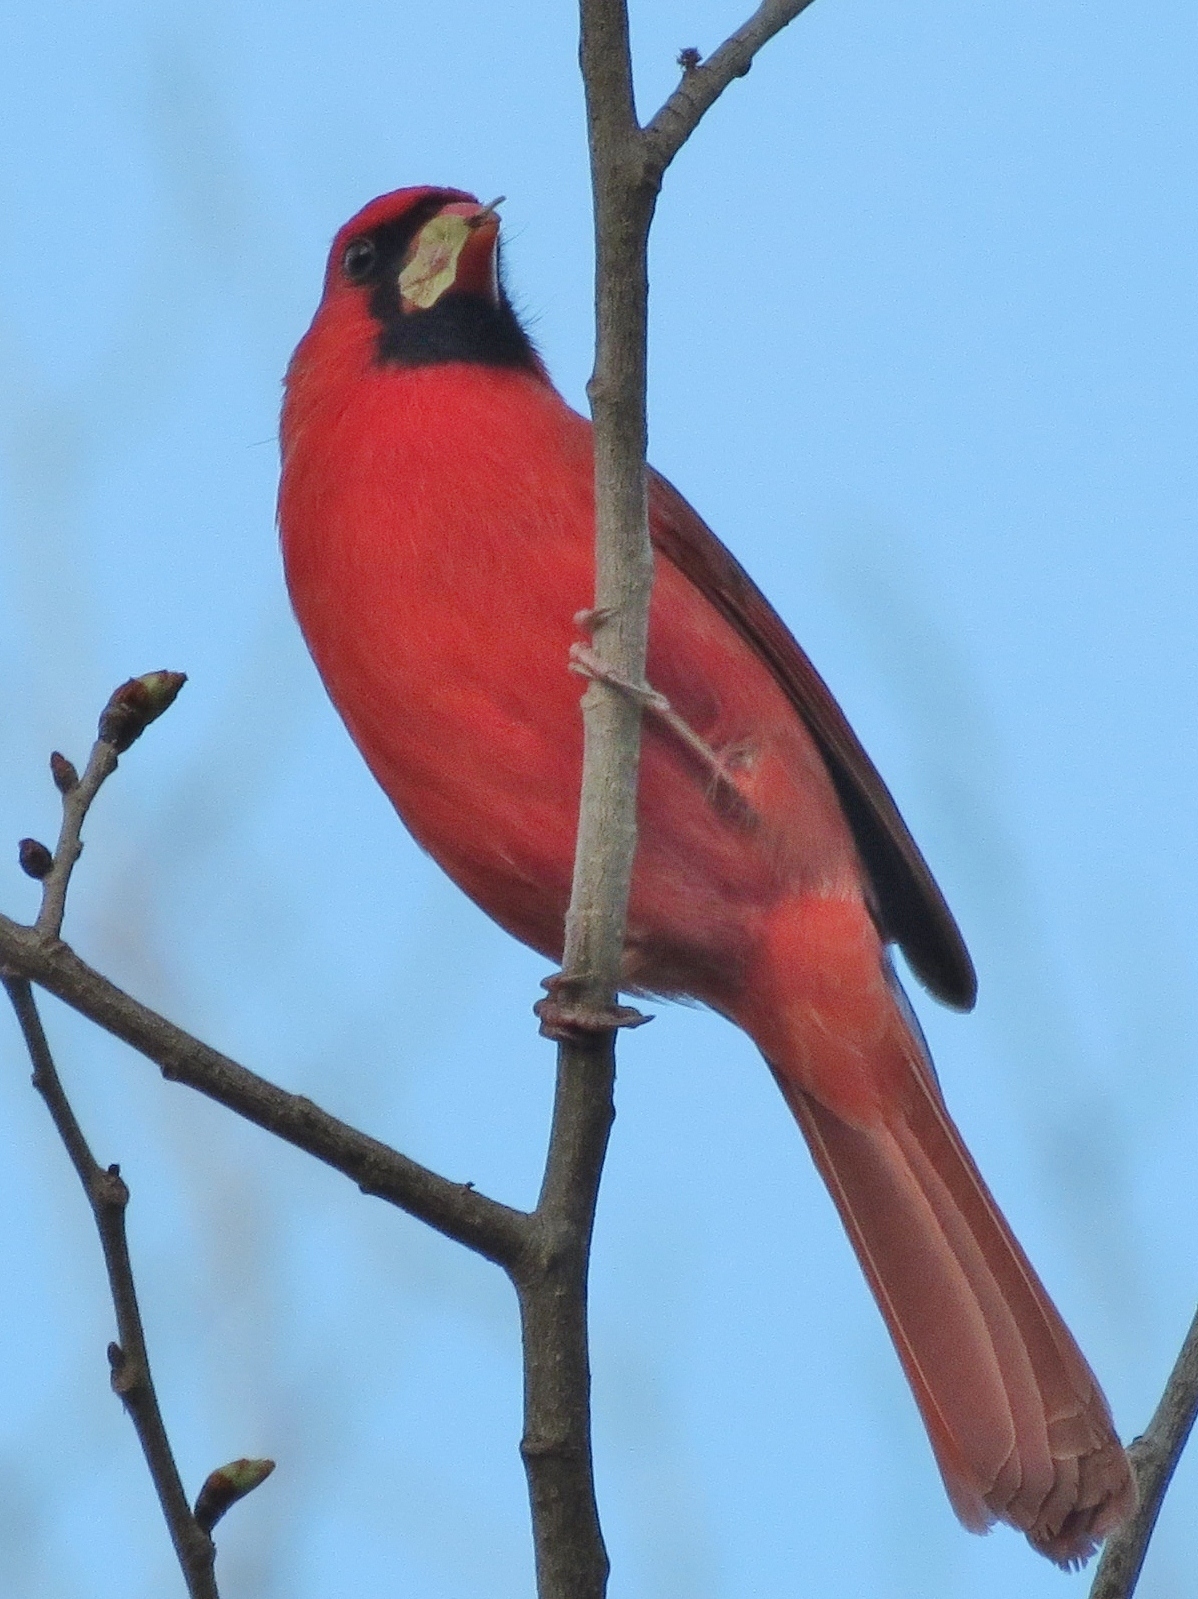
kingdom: Animalia
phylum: Chordata
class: Aves
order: Passeriformes
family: Cardinalidae
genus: Cardinalis
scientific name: Cardinalis cardinalis
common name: Northern cardinal
